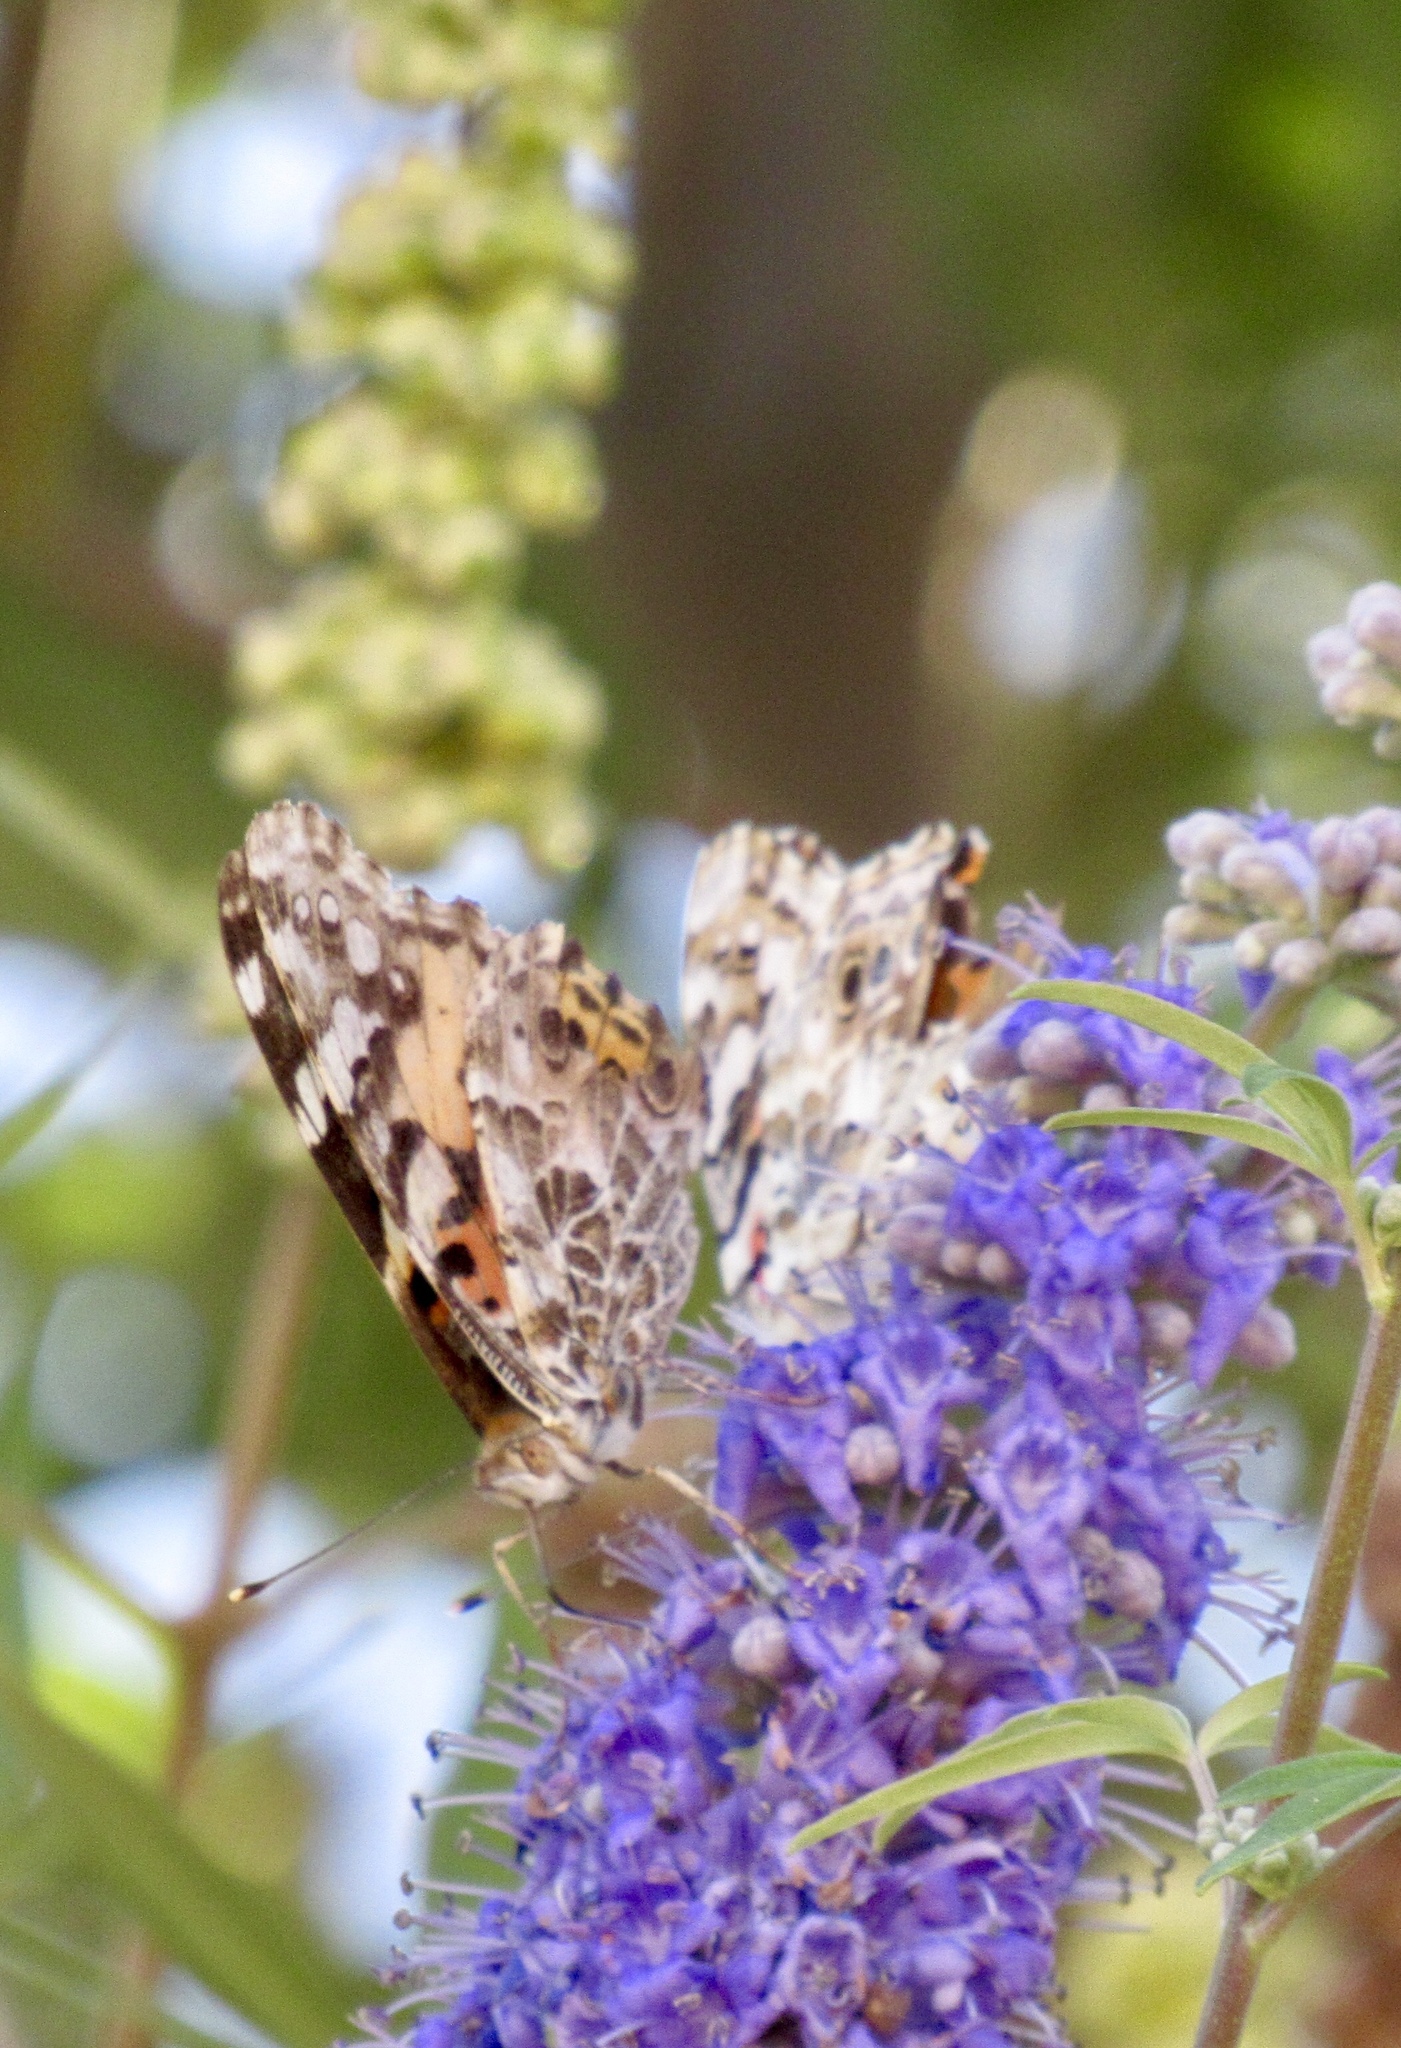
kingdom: Animalia
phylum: Arthropoda
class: Insecta
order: Lepidoptera
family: Nymphalidae
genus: Vanessa
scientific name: Vanessa cardui
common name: Painted lady
